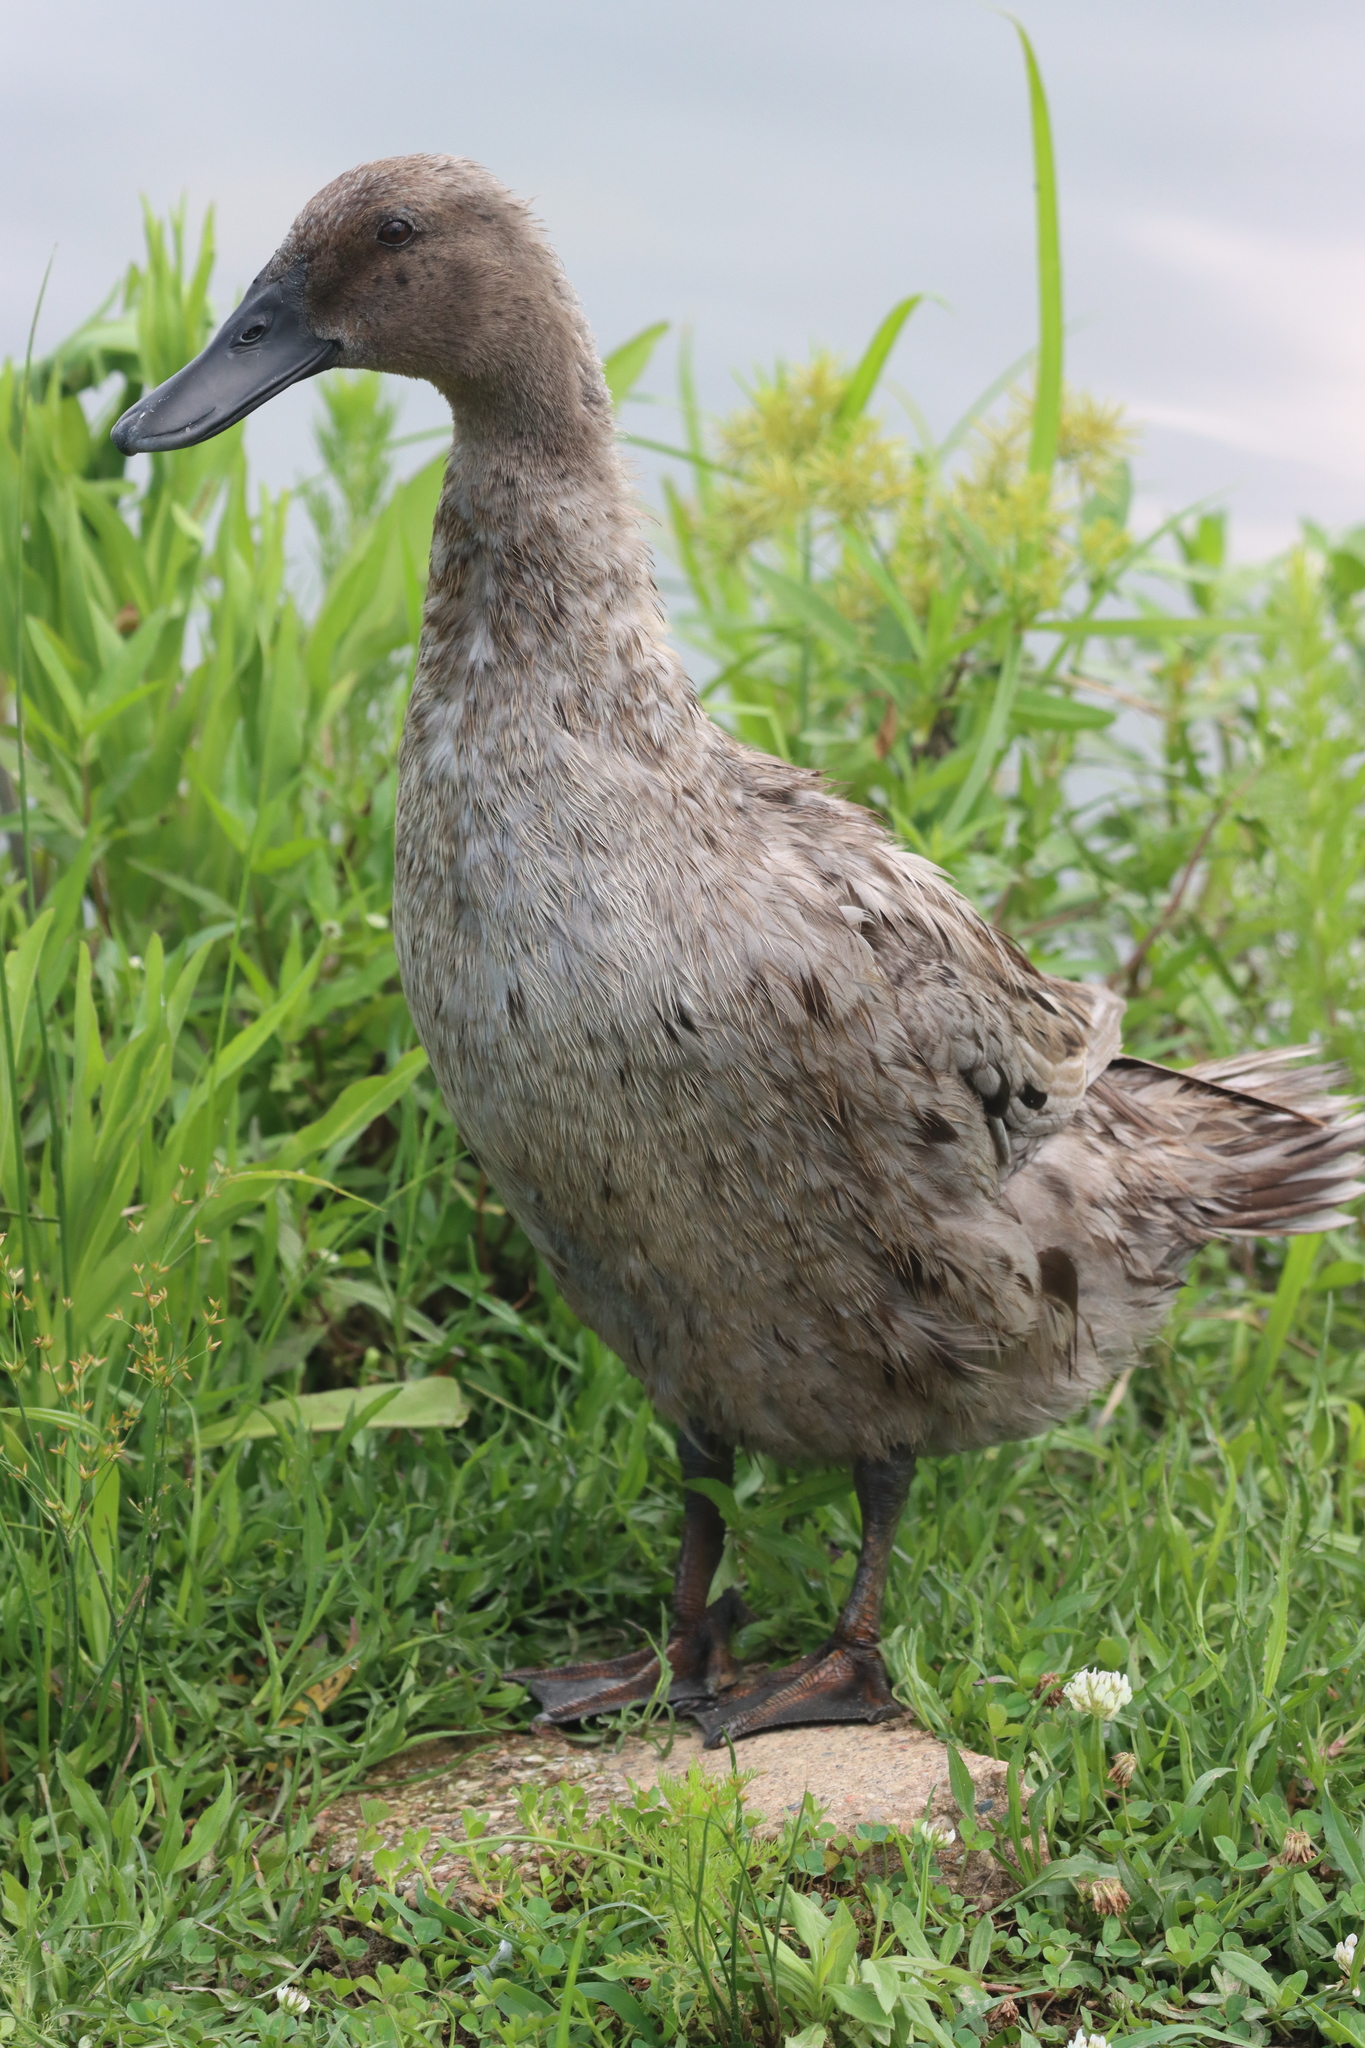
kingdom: Animalia
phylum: Chordata
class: Aves
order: Anseriformes
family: Anatidae
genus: Anas
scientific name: Anas platyrhynchos
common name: Mallard
